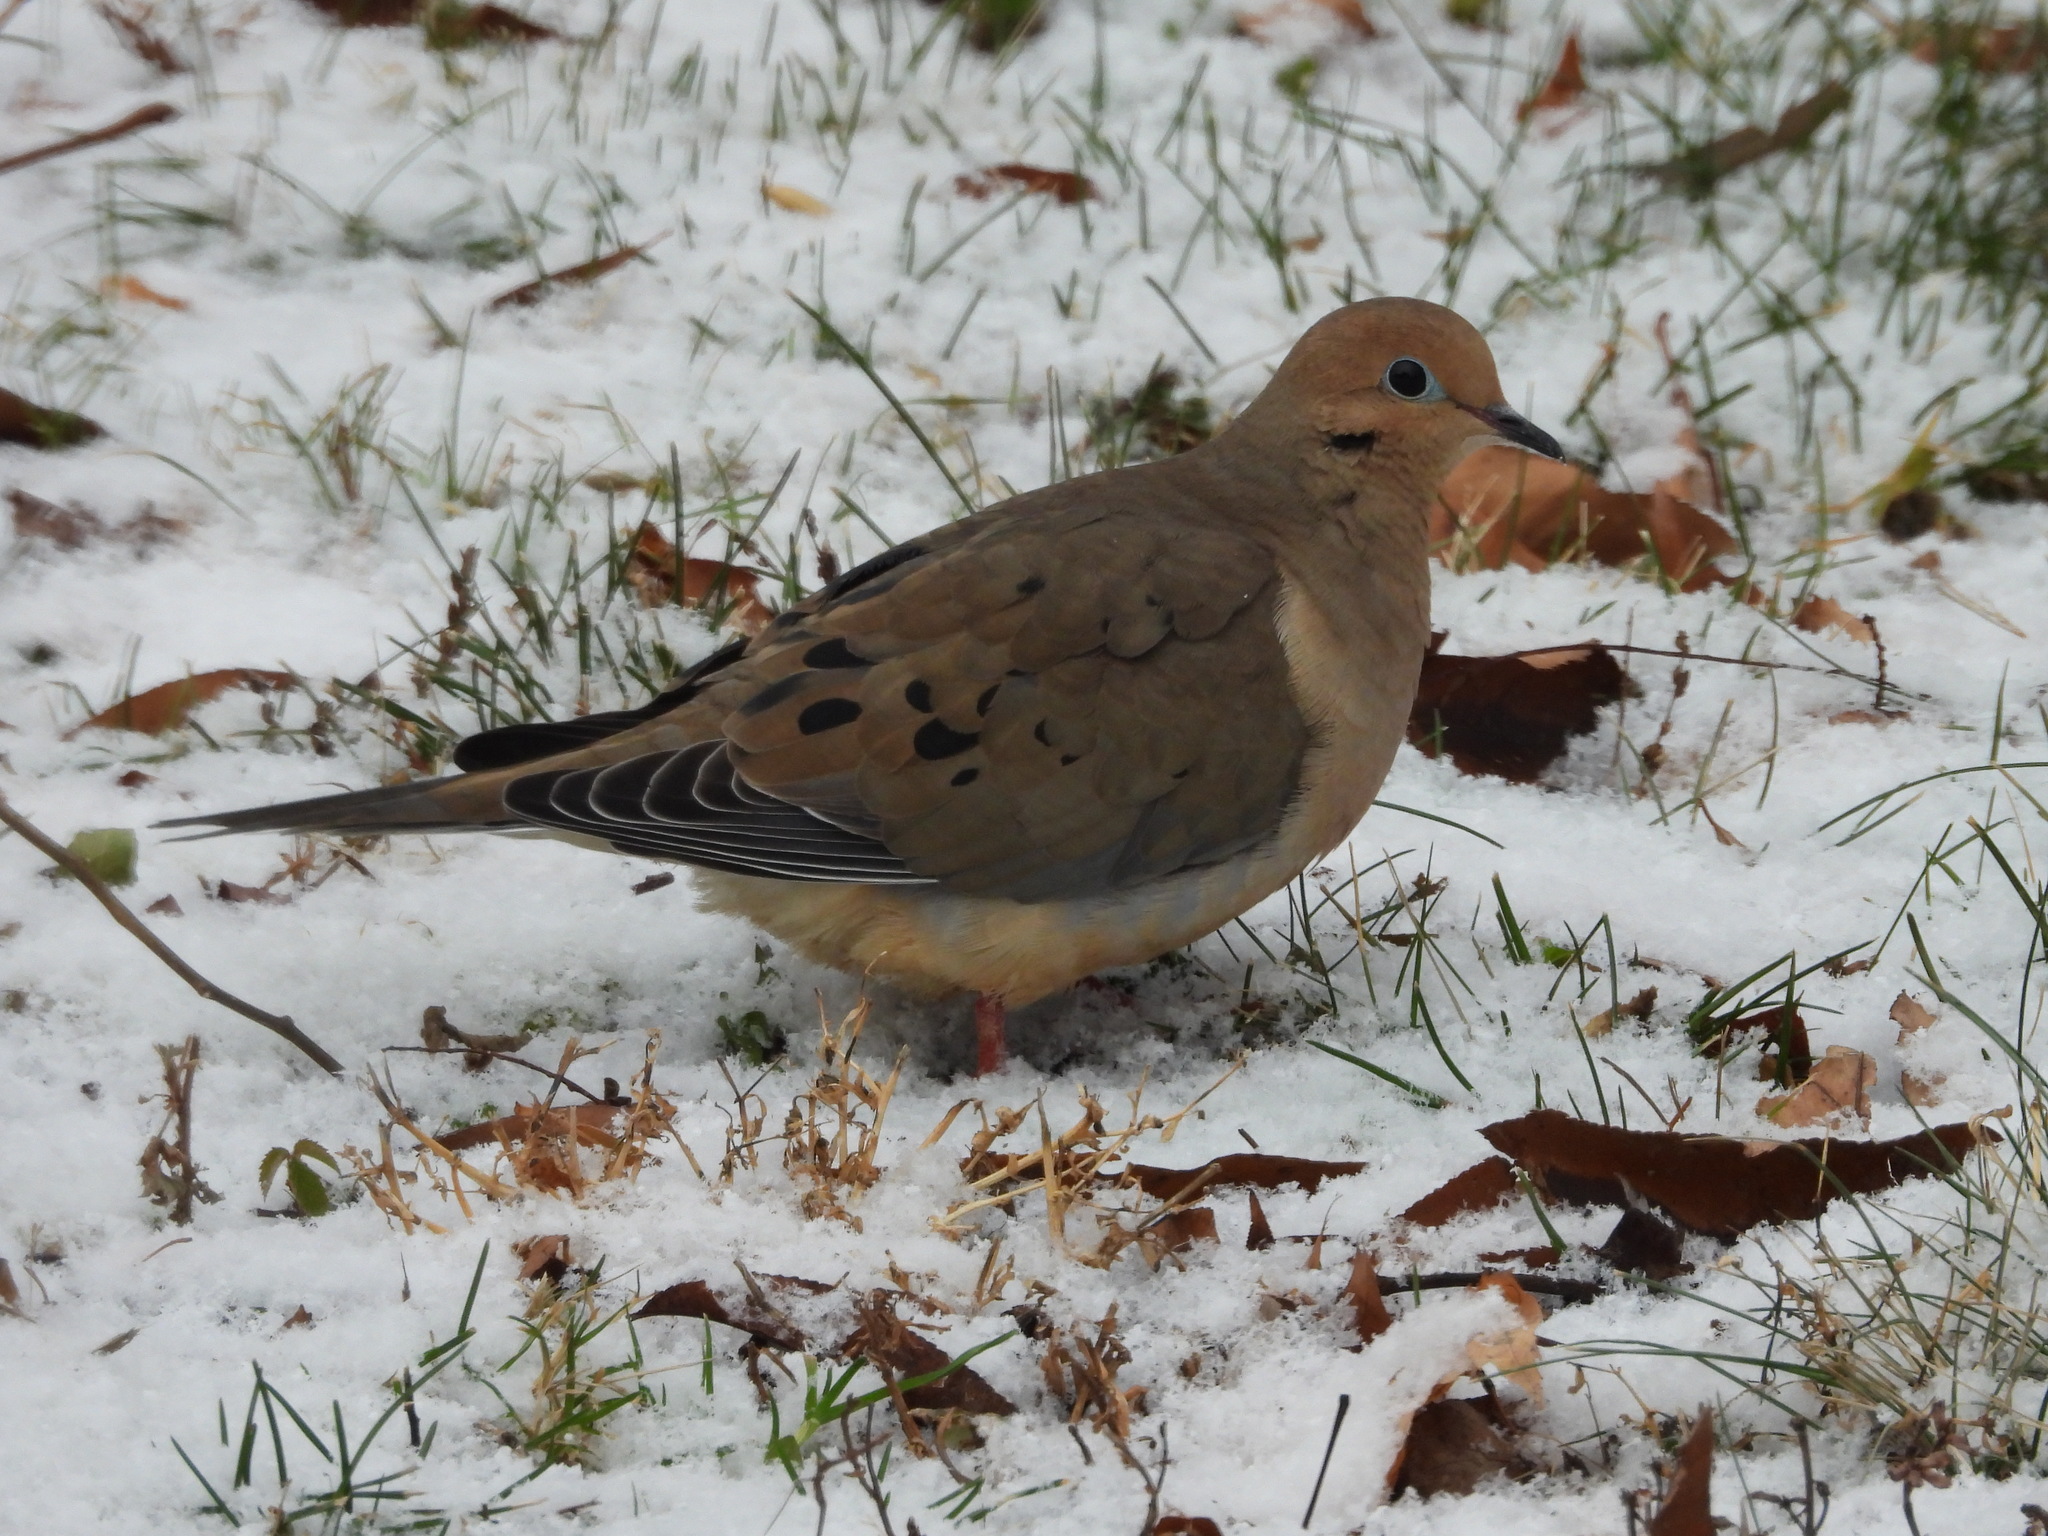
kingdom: Animalia
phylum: Chordata
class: Aves
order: Columbiformes
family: Columbidae
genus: Zenaida
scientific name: Zenaida macroura
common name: Mourning dove
